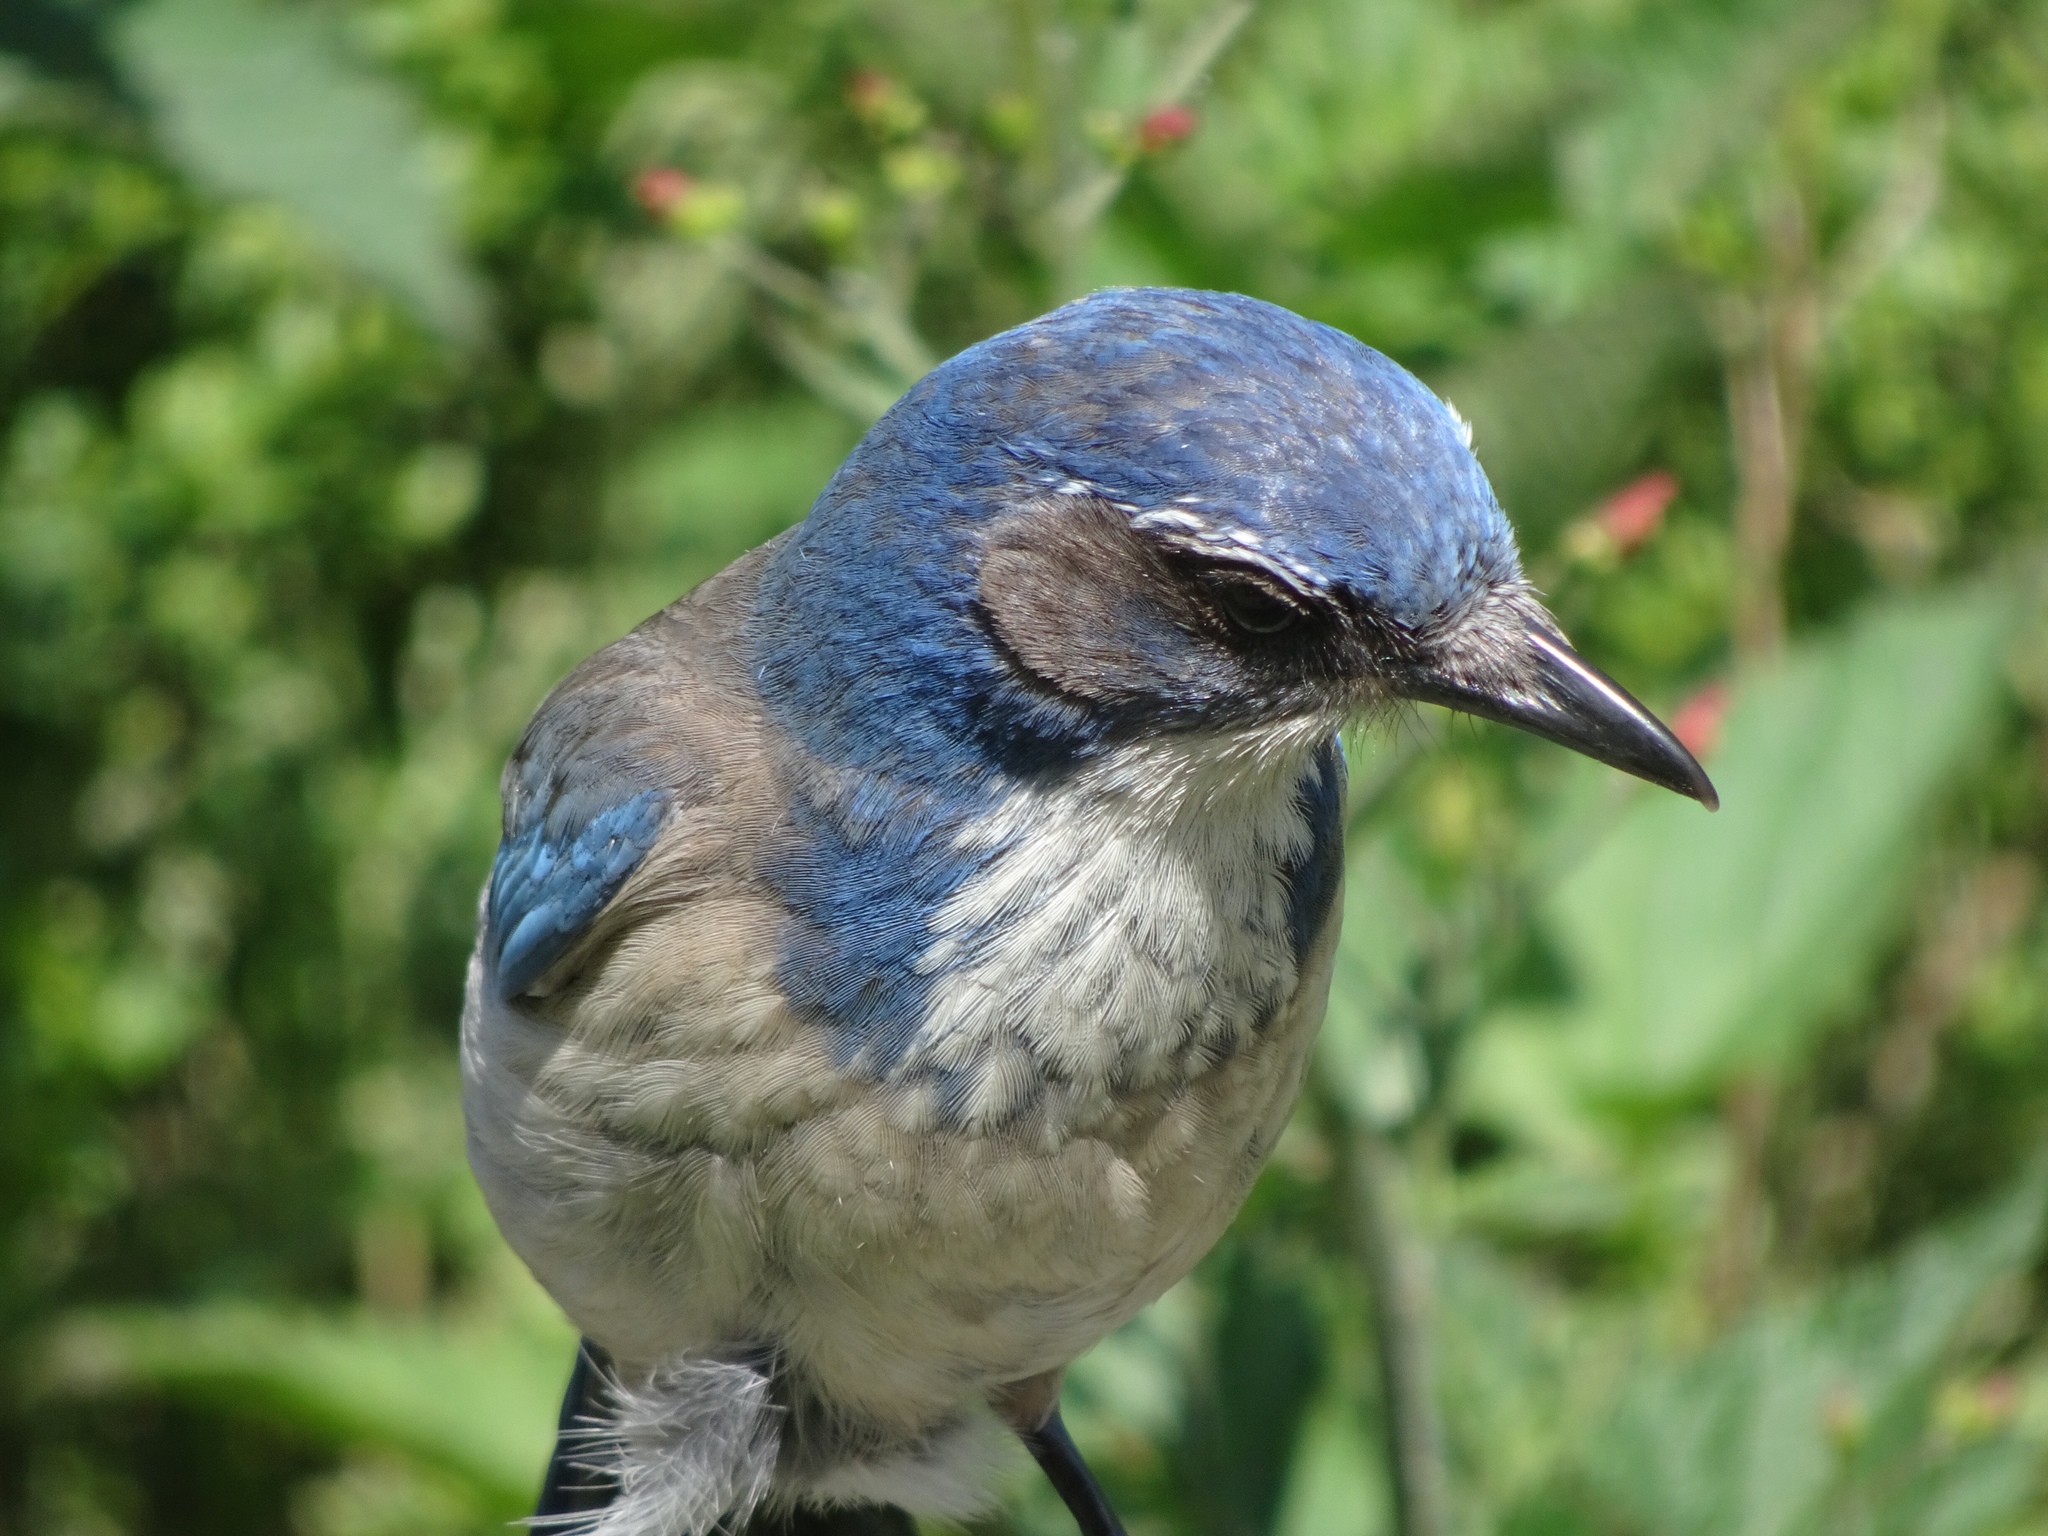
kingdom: Animalia
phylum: Chordata
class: Aves
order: Passeriformes
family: Corvidae
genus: Aphelocoma
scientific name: Aphelocoma californica
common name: California scrub-jay
